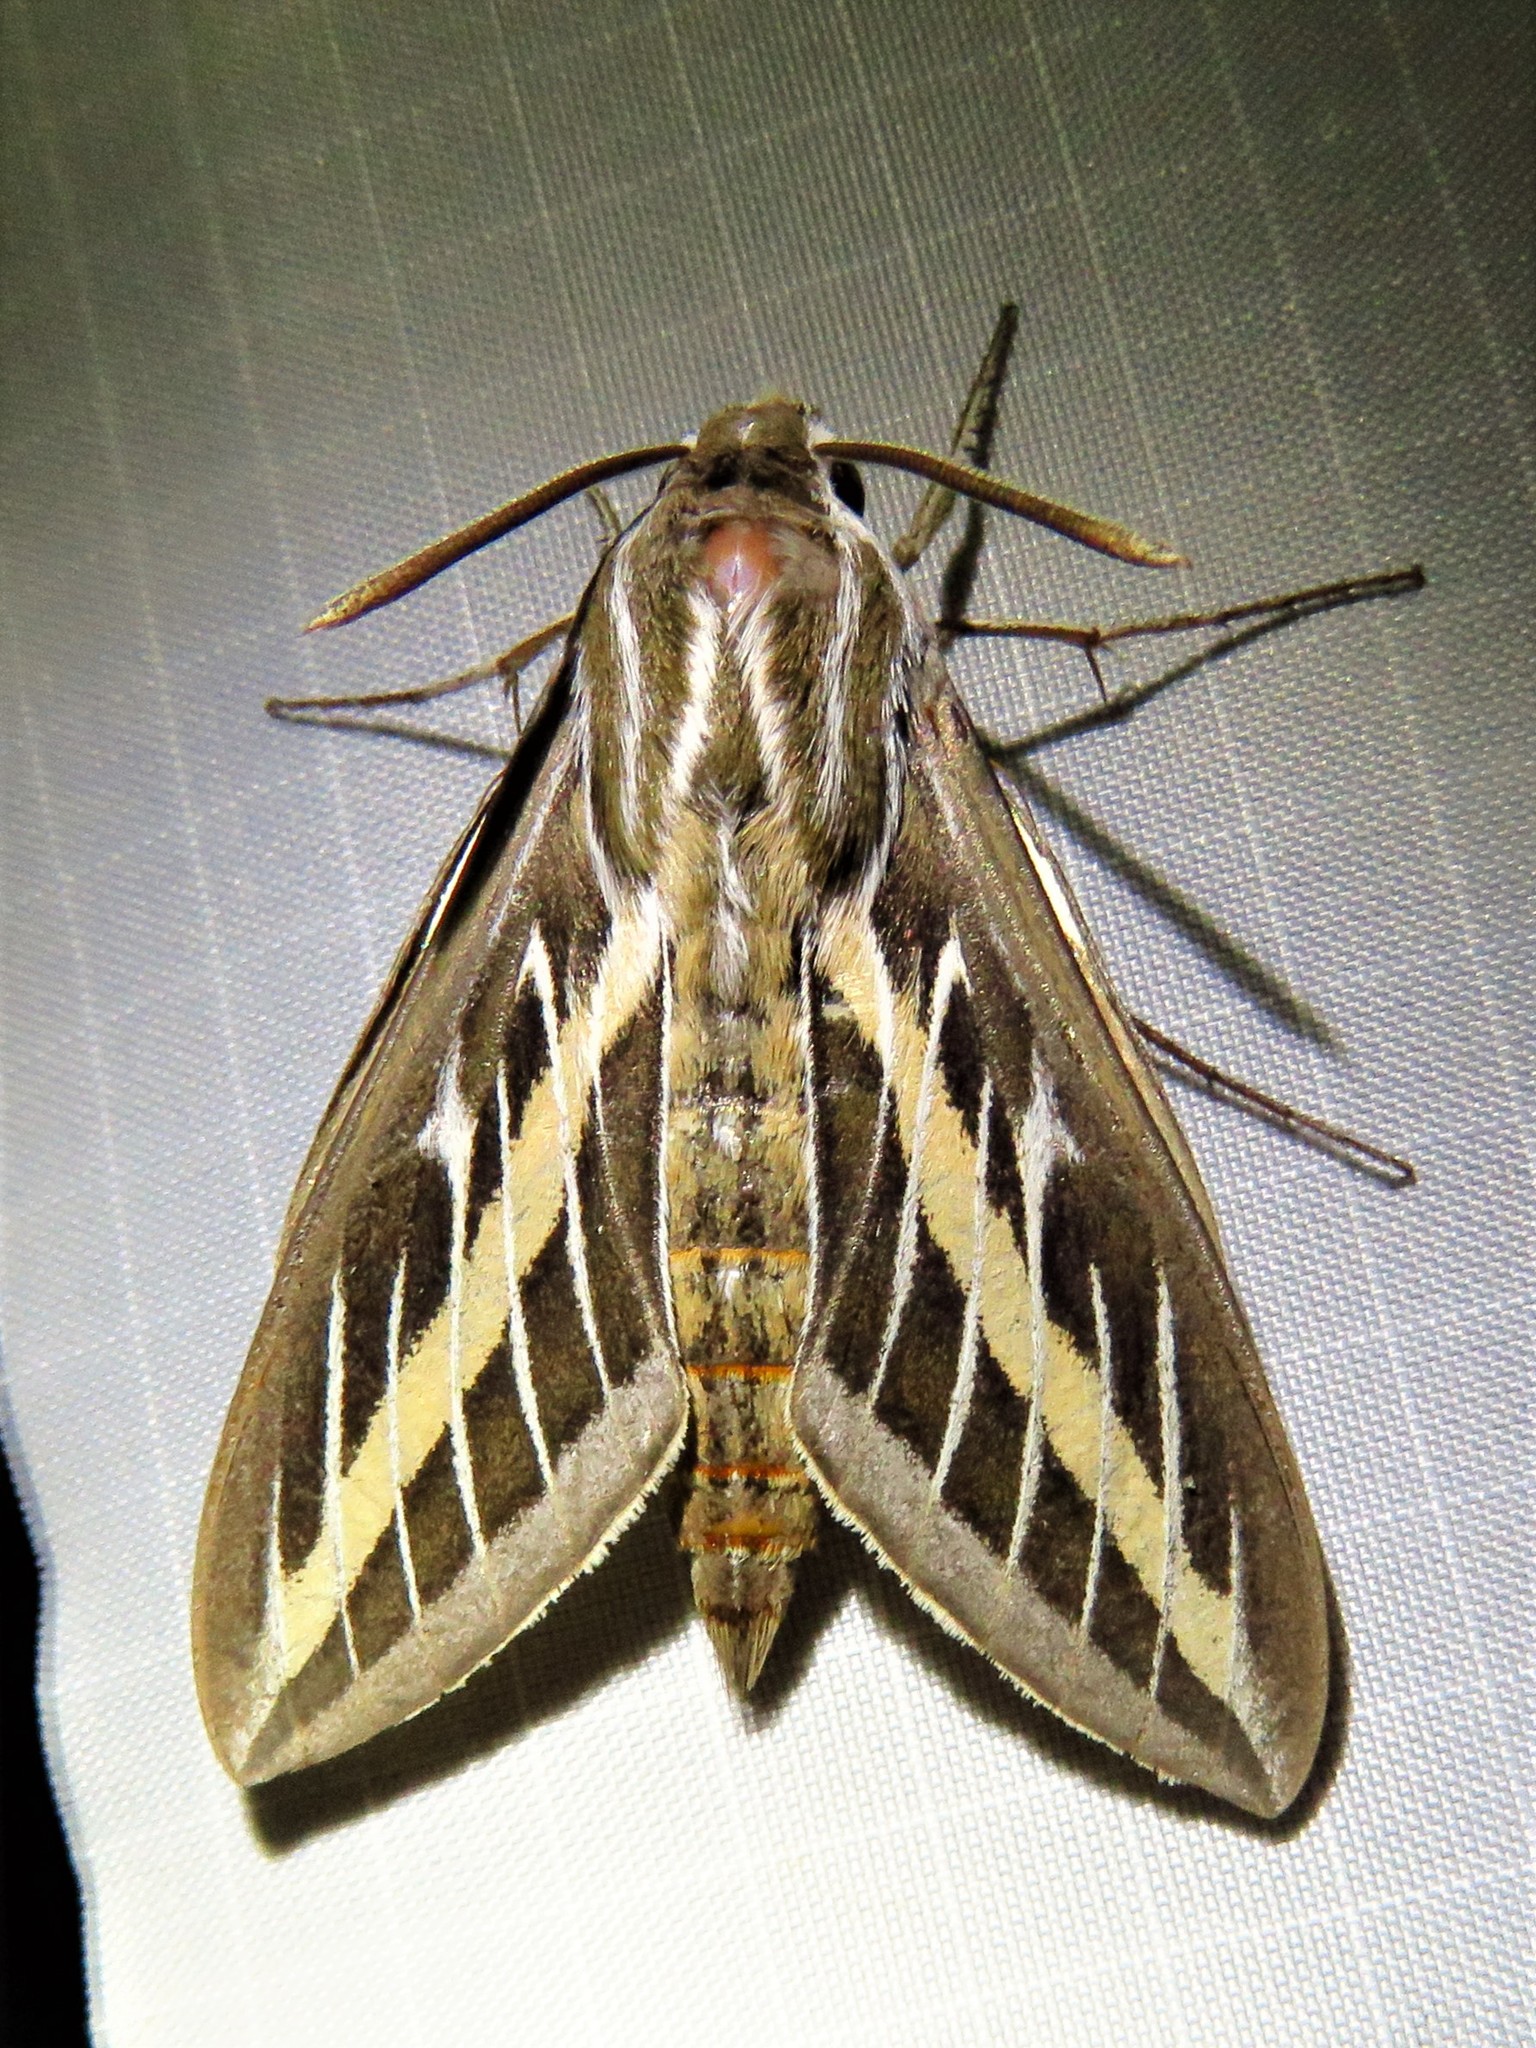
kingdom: Animalia
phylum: Arthropoda
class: Insecta
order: Lepidoptera
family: Sphingidae
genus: Hyles
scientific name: Hyles lineata
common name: White-lined sphinx
